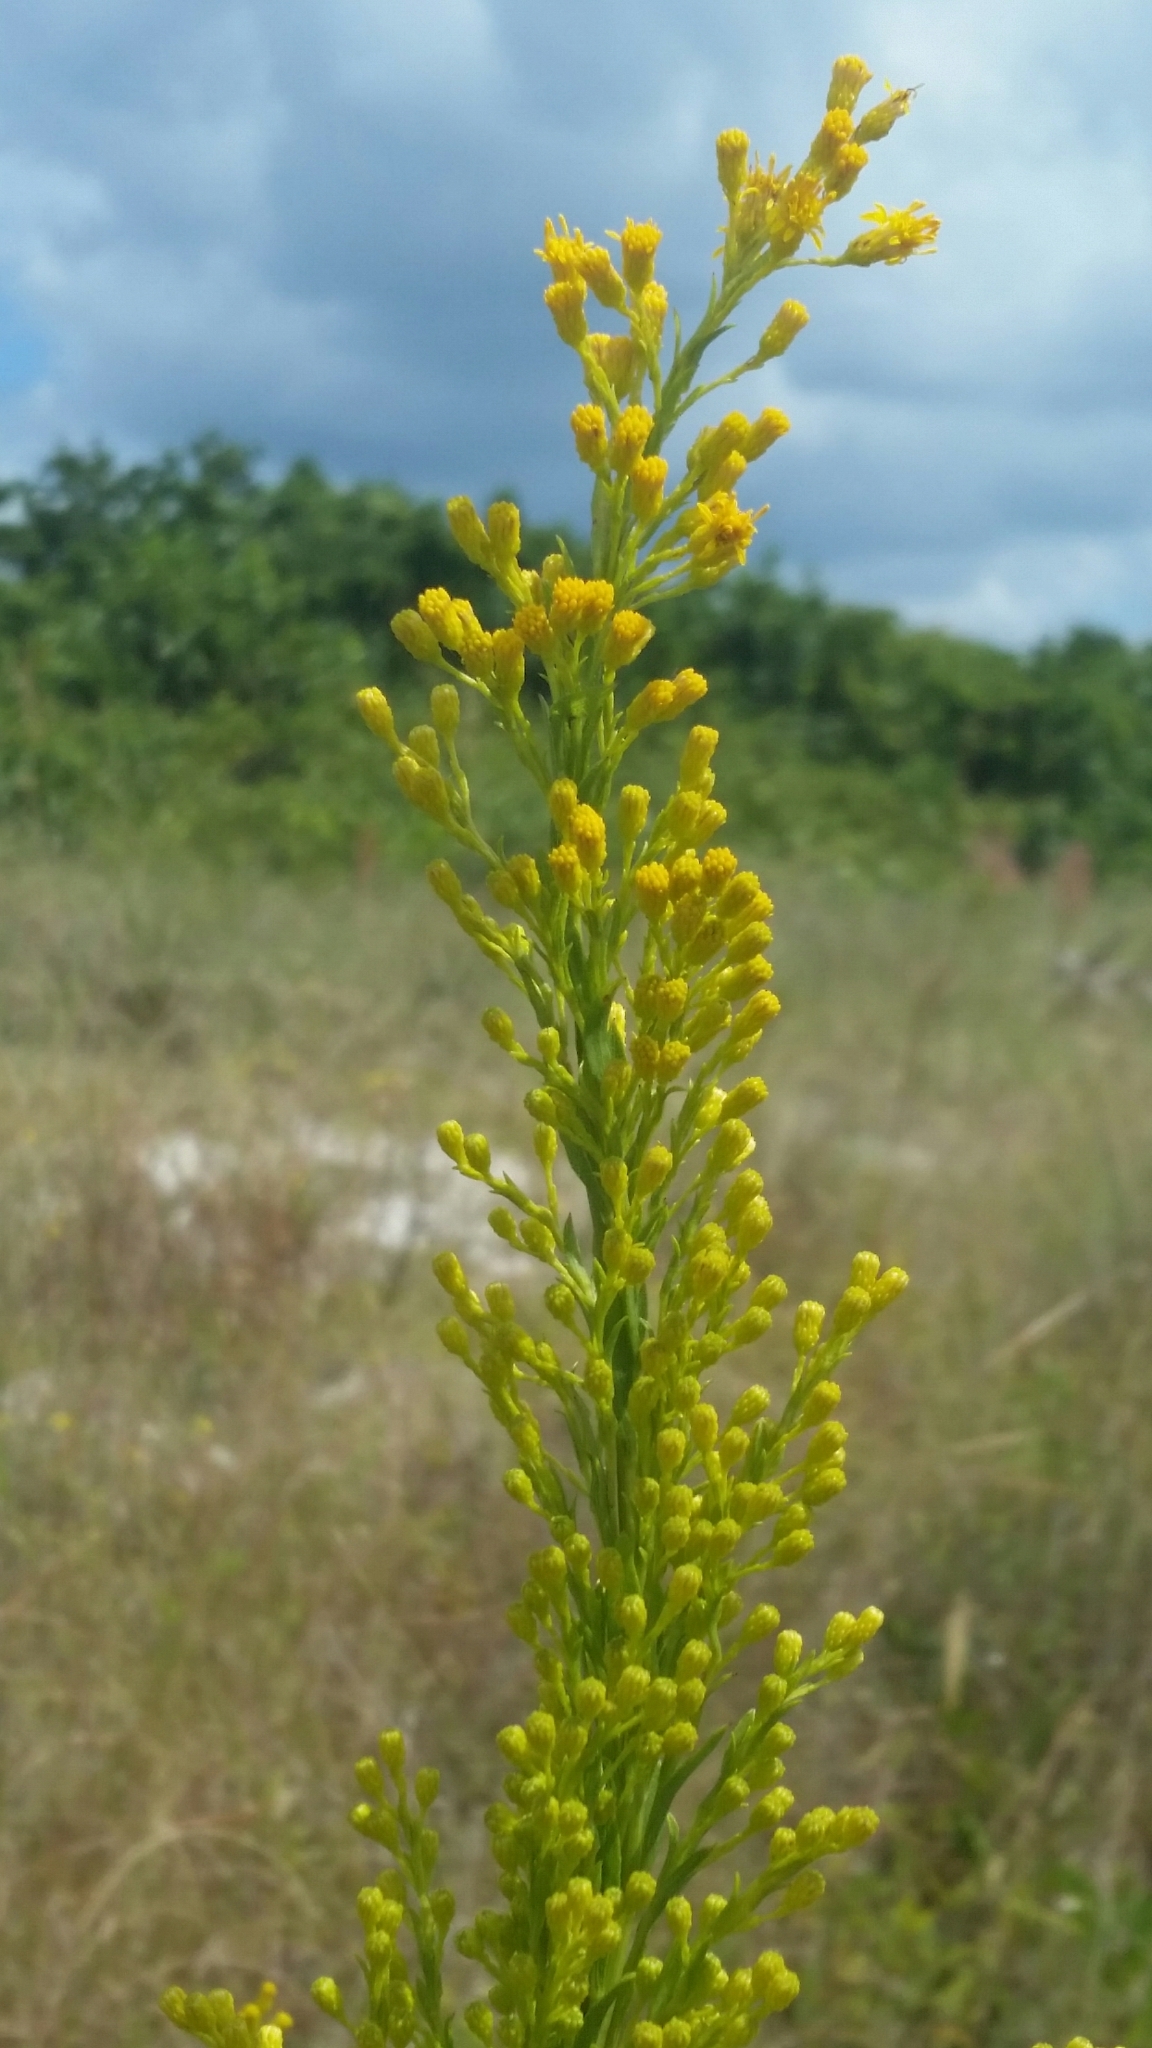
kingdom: Plantae
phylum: Tracheophyta
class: Magnoliopsida
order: Asterales
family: Asteraceae
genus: Solidago
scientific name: Solidago mexicana
